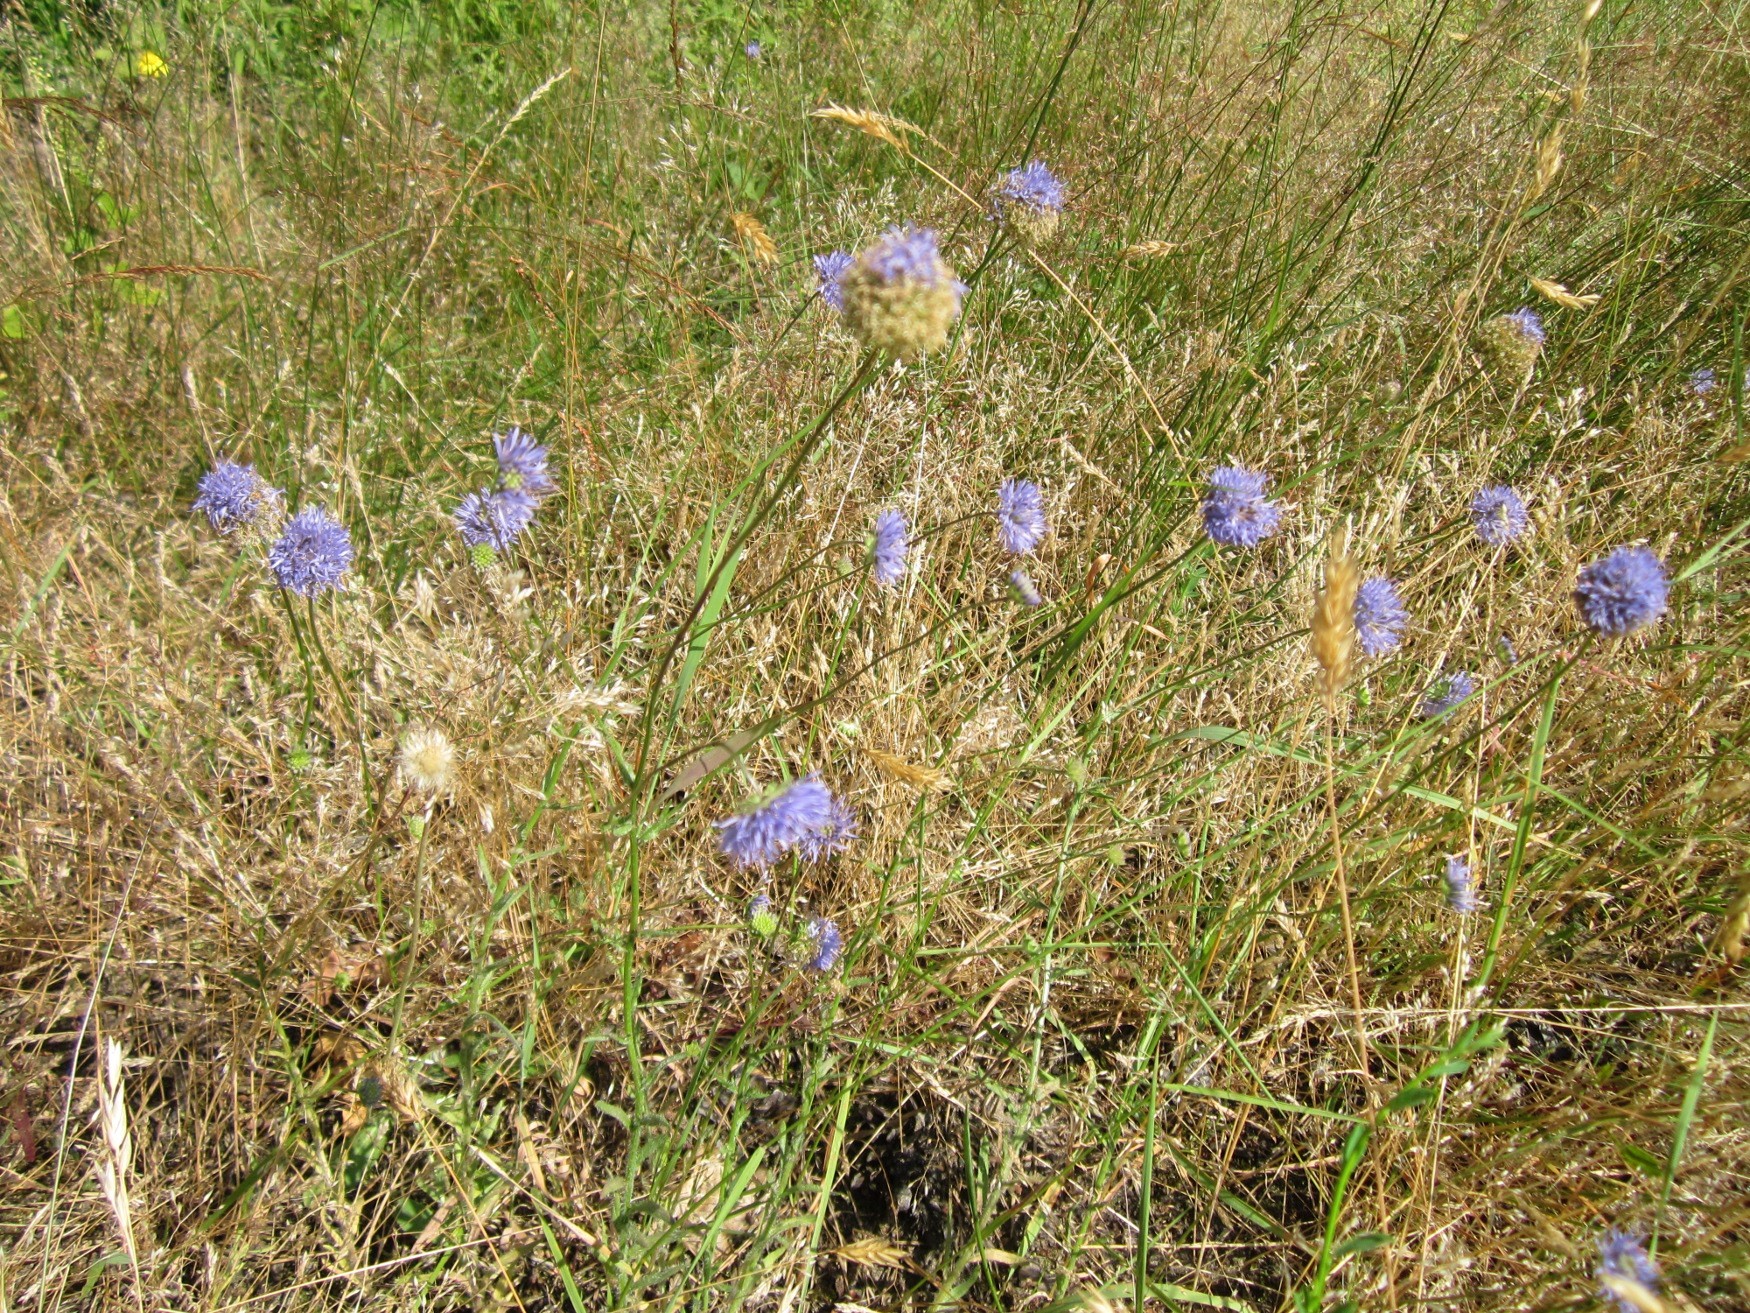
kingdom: Plantae
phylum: Tracheophyta
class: Magnoliopsida
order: Asterales
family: Campanulaceae
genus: Jasione
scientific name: Jasione montana
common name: Sheep's-bit
